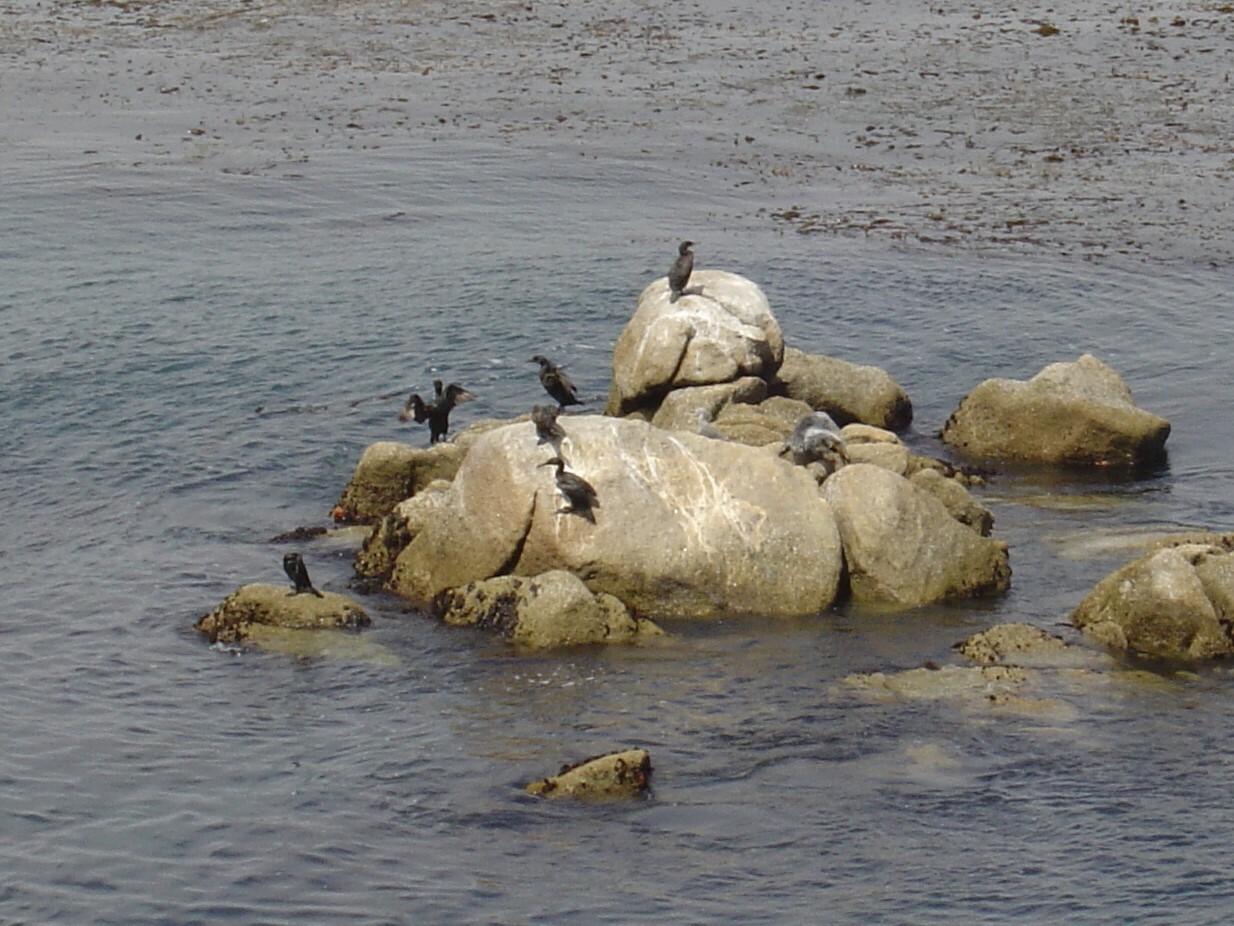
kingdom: Animalia
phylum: Chordata
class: Aves
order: Suliformes
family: Phalacrocoracidae
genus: Urile
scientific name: Urile
